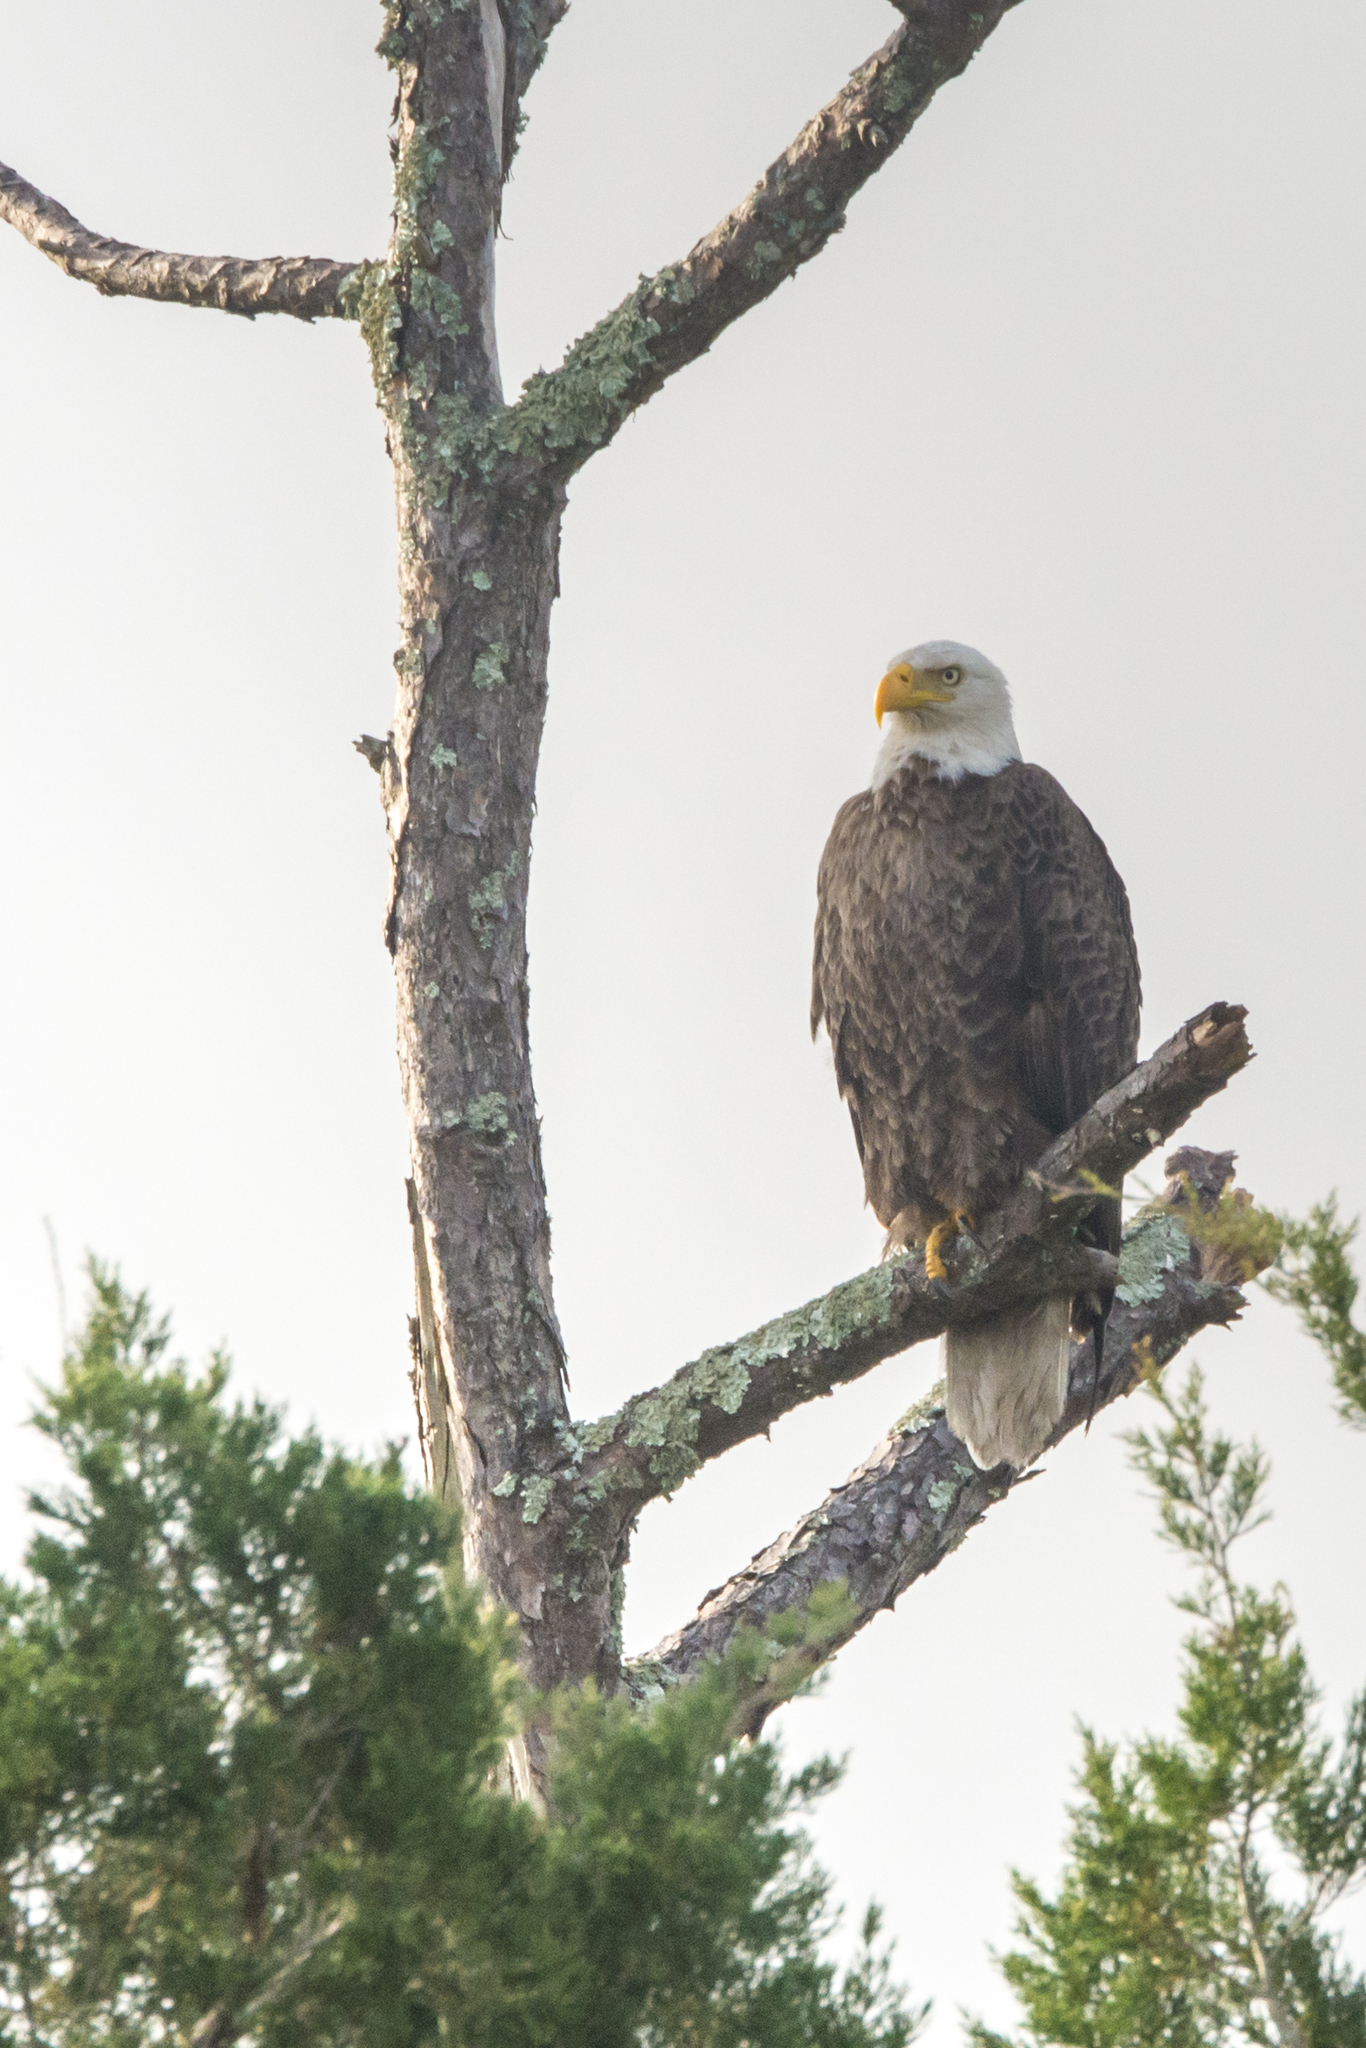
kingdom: Animalia
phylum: Chordata
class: Aves
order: Accipitriformes
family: Accipitridae
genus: Haliaeetus
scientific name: Haliaeetus leucocephalus
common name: Bald eagle
